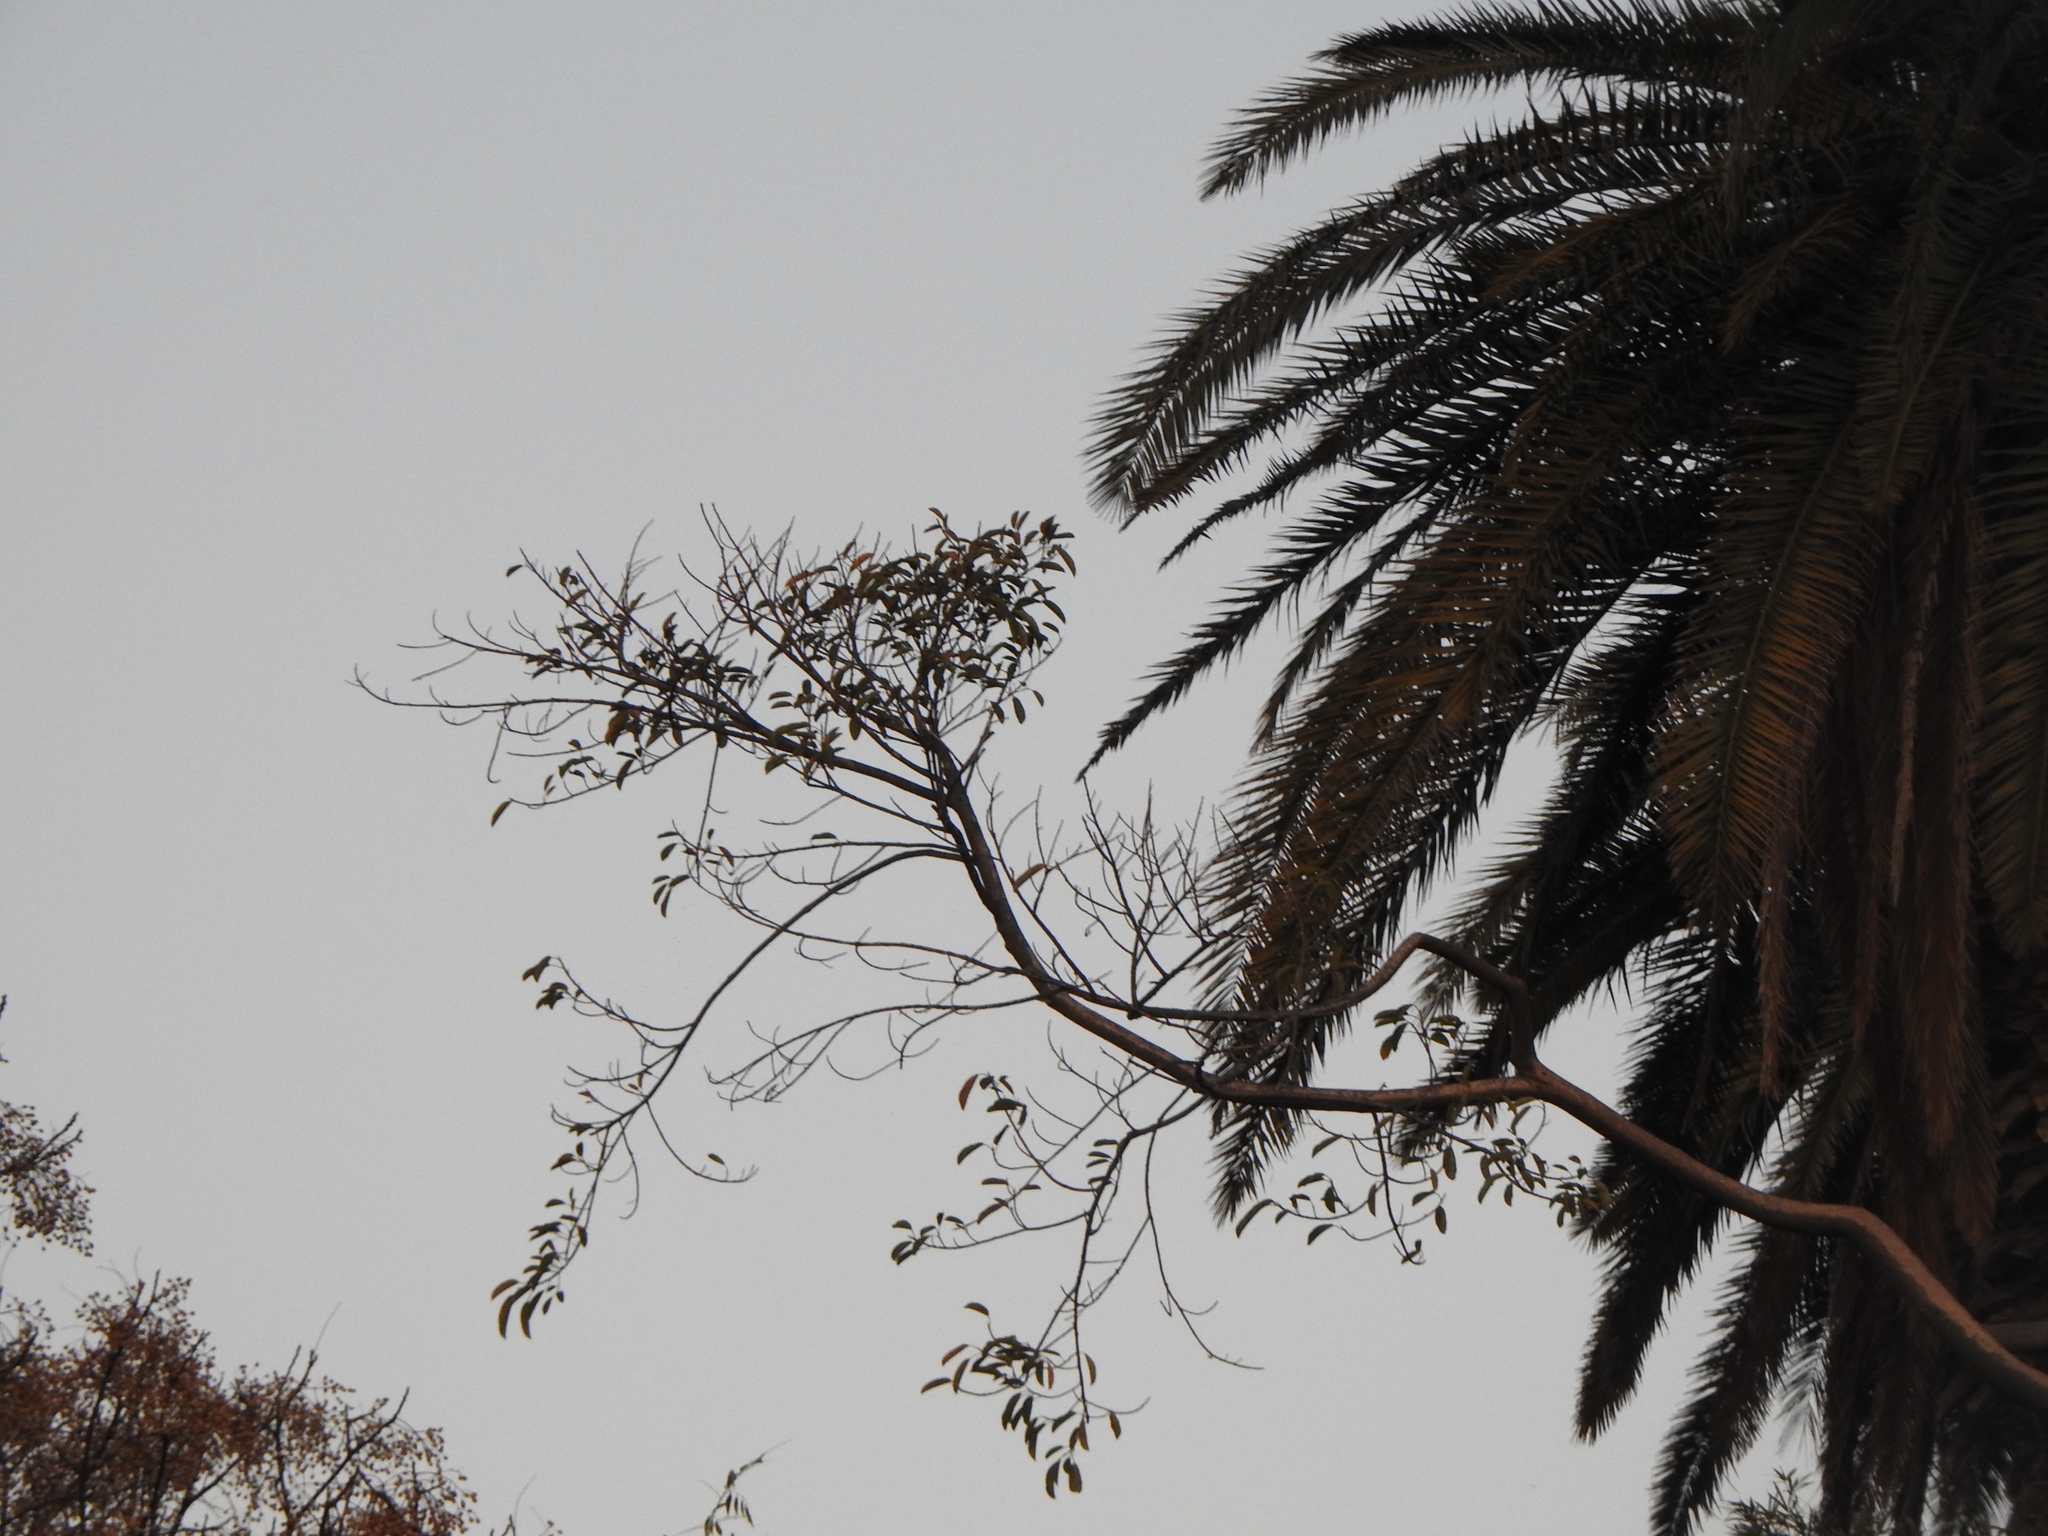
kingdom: Plantae
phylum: Tracheophyta
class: Magnoliopsida
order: Rosales
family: Moraceae
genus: Ficus
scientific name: Ficus luschnathiana
